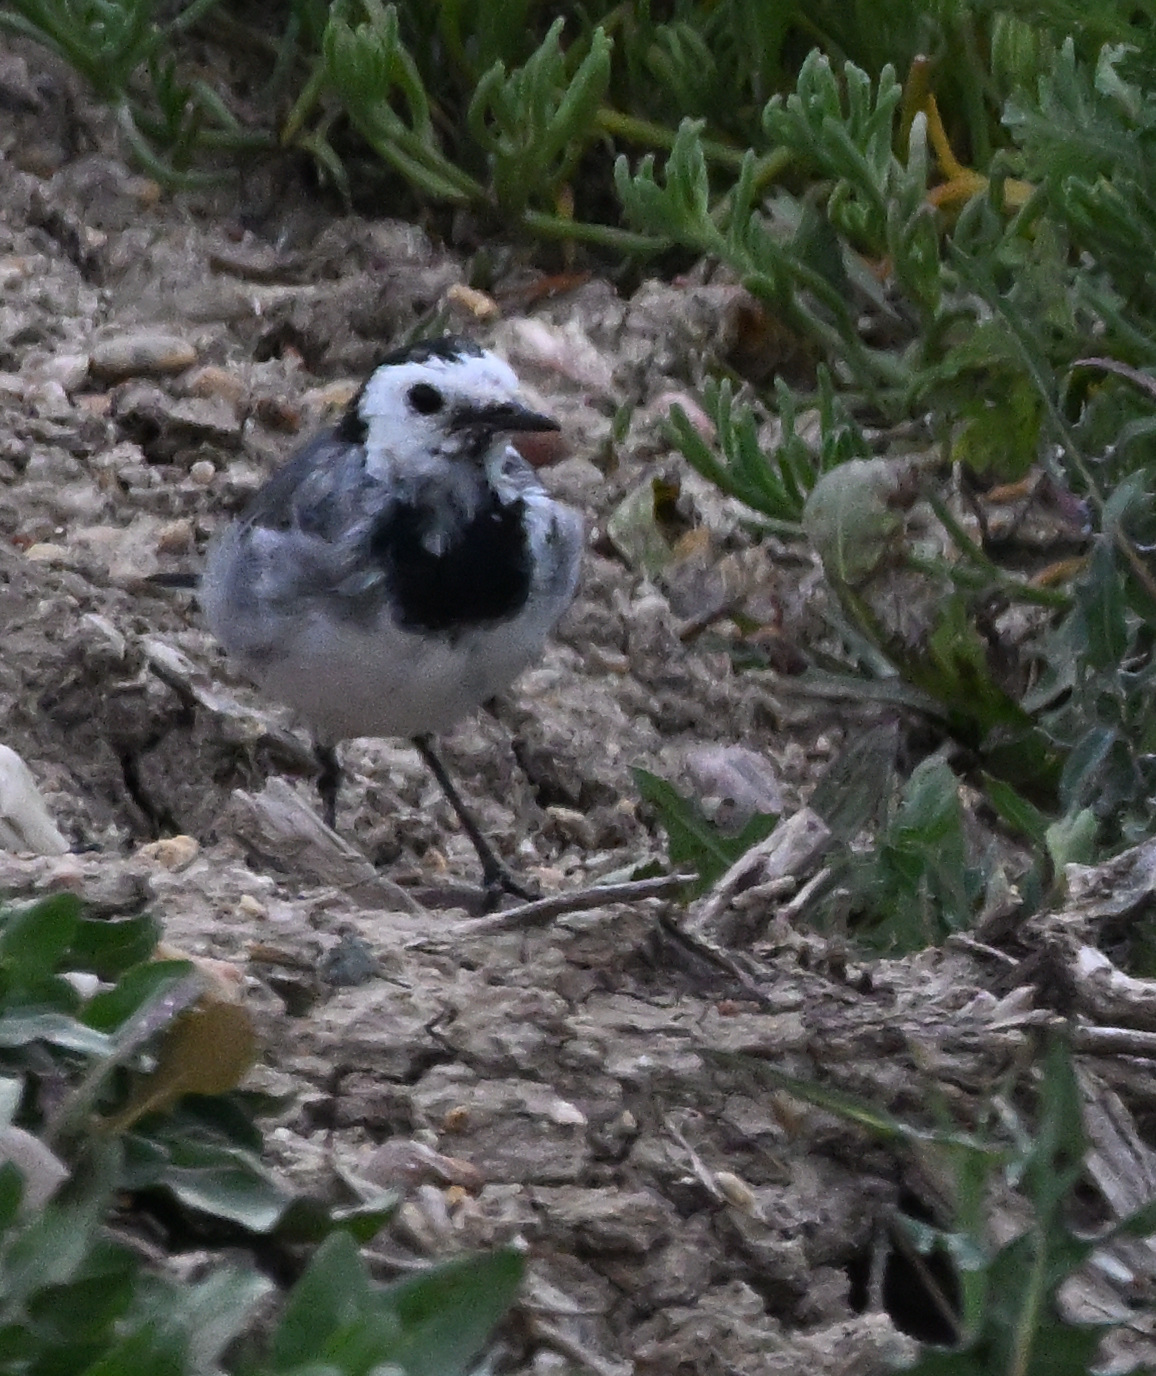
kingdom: Animalia
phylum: Chordata
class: Aves
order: Passeriformes
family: Motacillidae
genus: Motacilla
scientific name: Motacilla alba
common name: White wagtail
